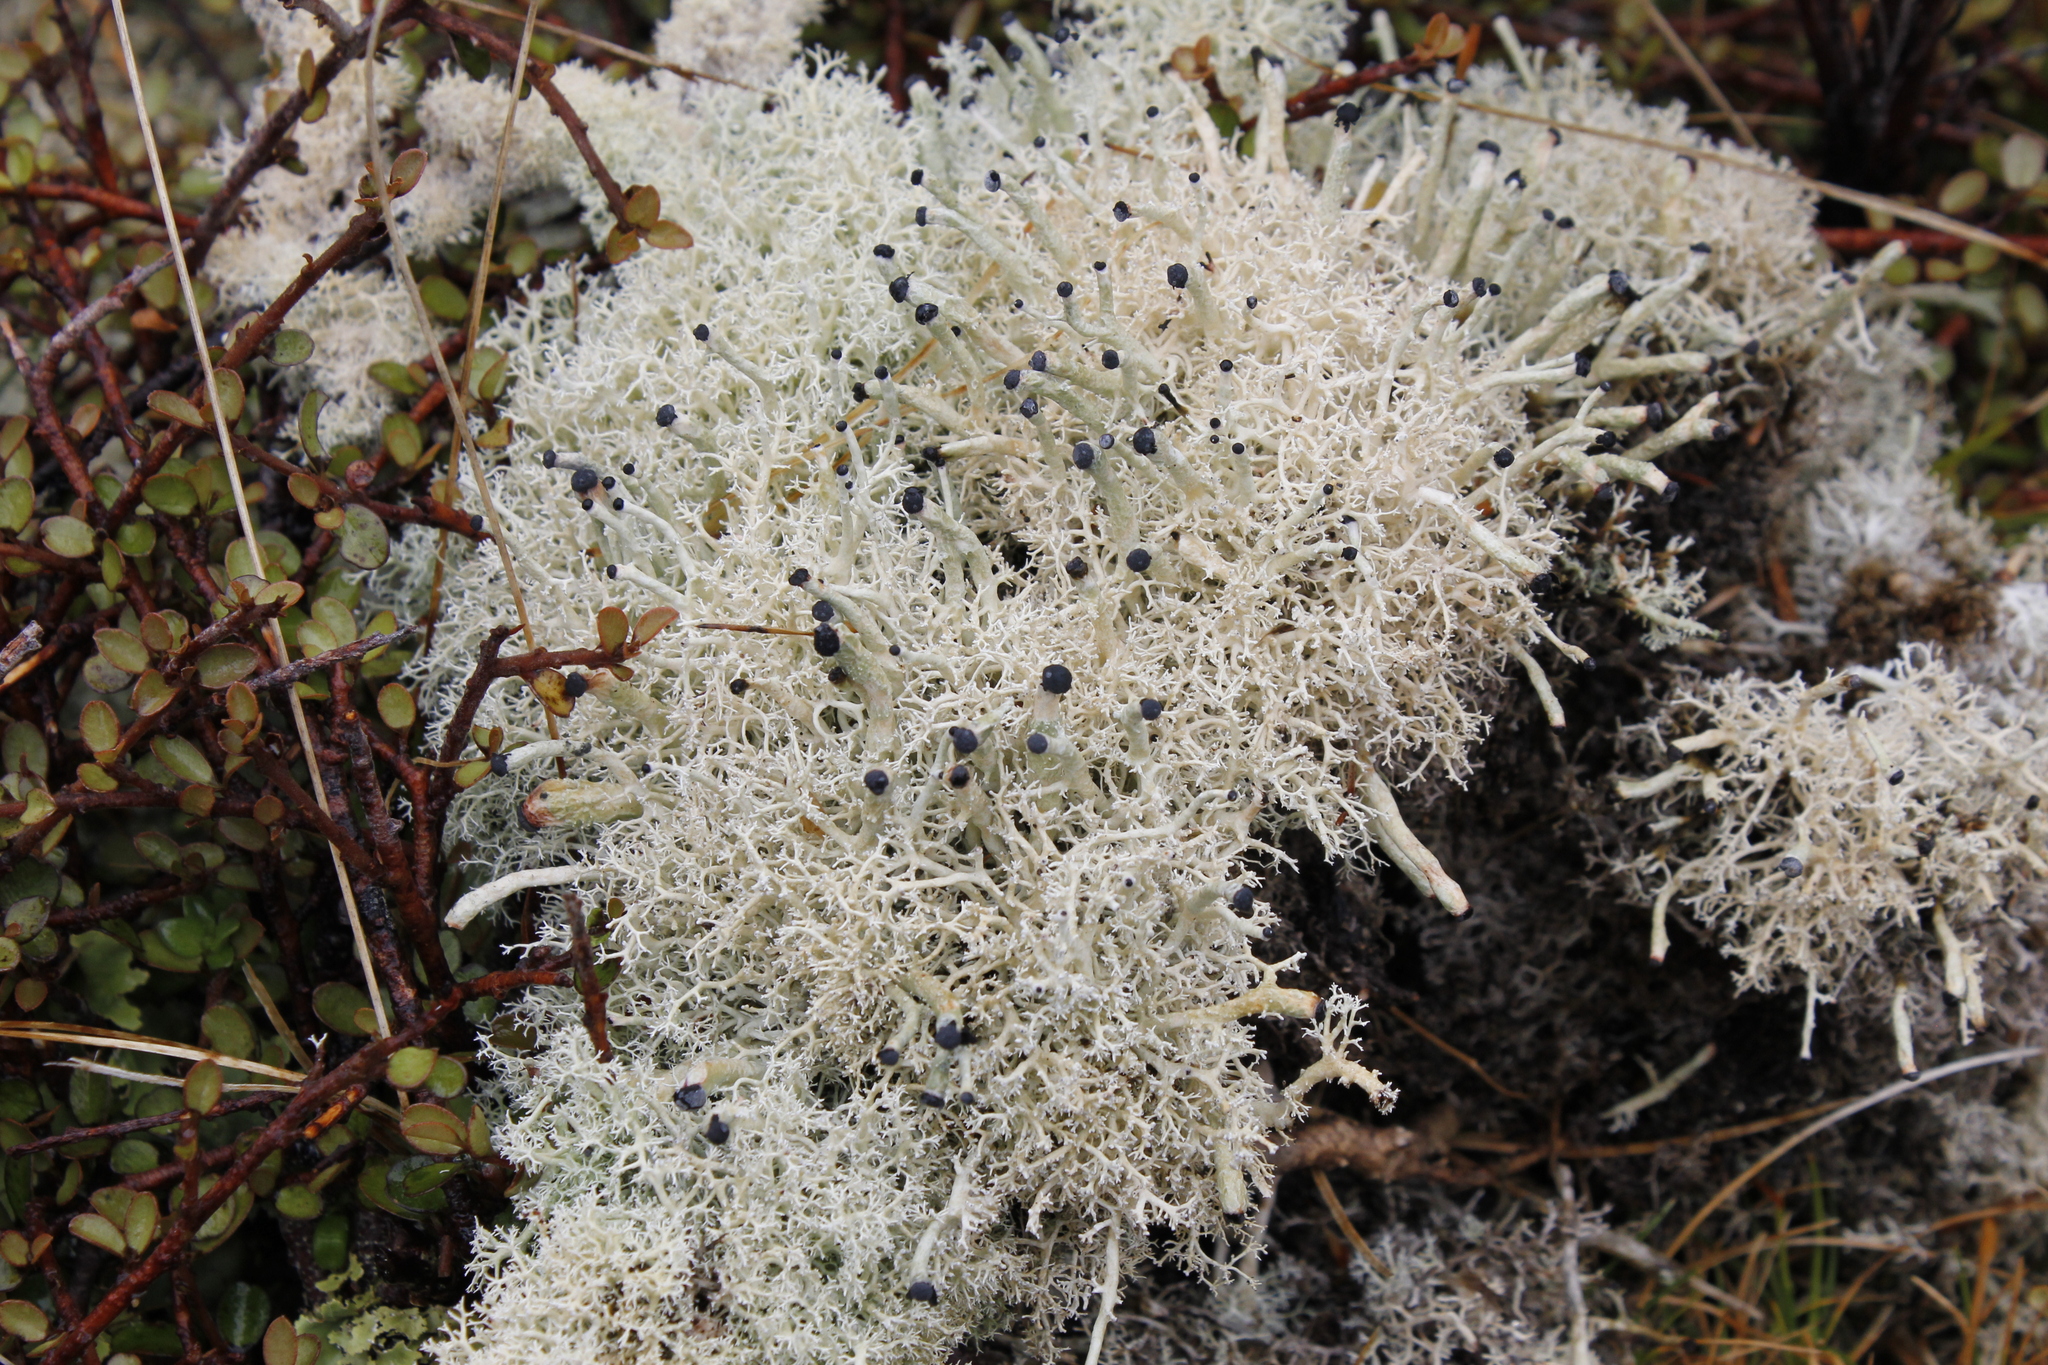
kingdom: Fungi
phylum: Ascomycota
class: Lecanoromycetes
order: Lecanorales
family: Sphaerophoraceae
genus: Leifidium
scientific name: Leifidium tenerum
